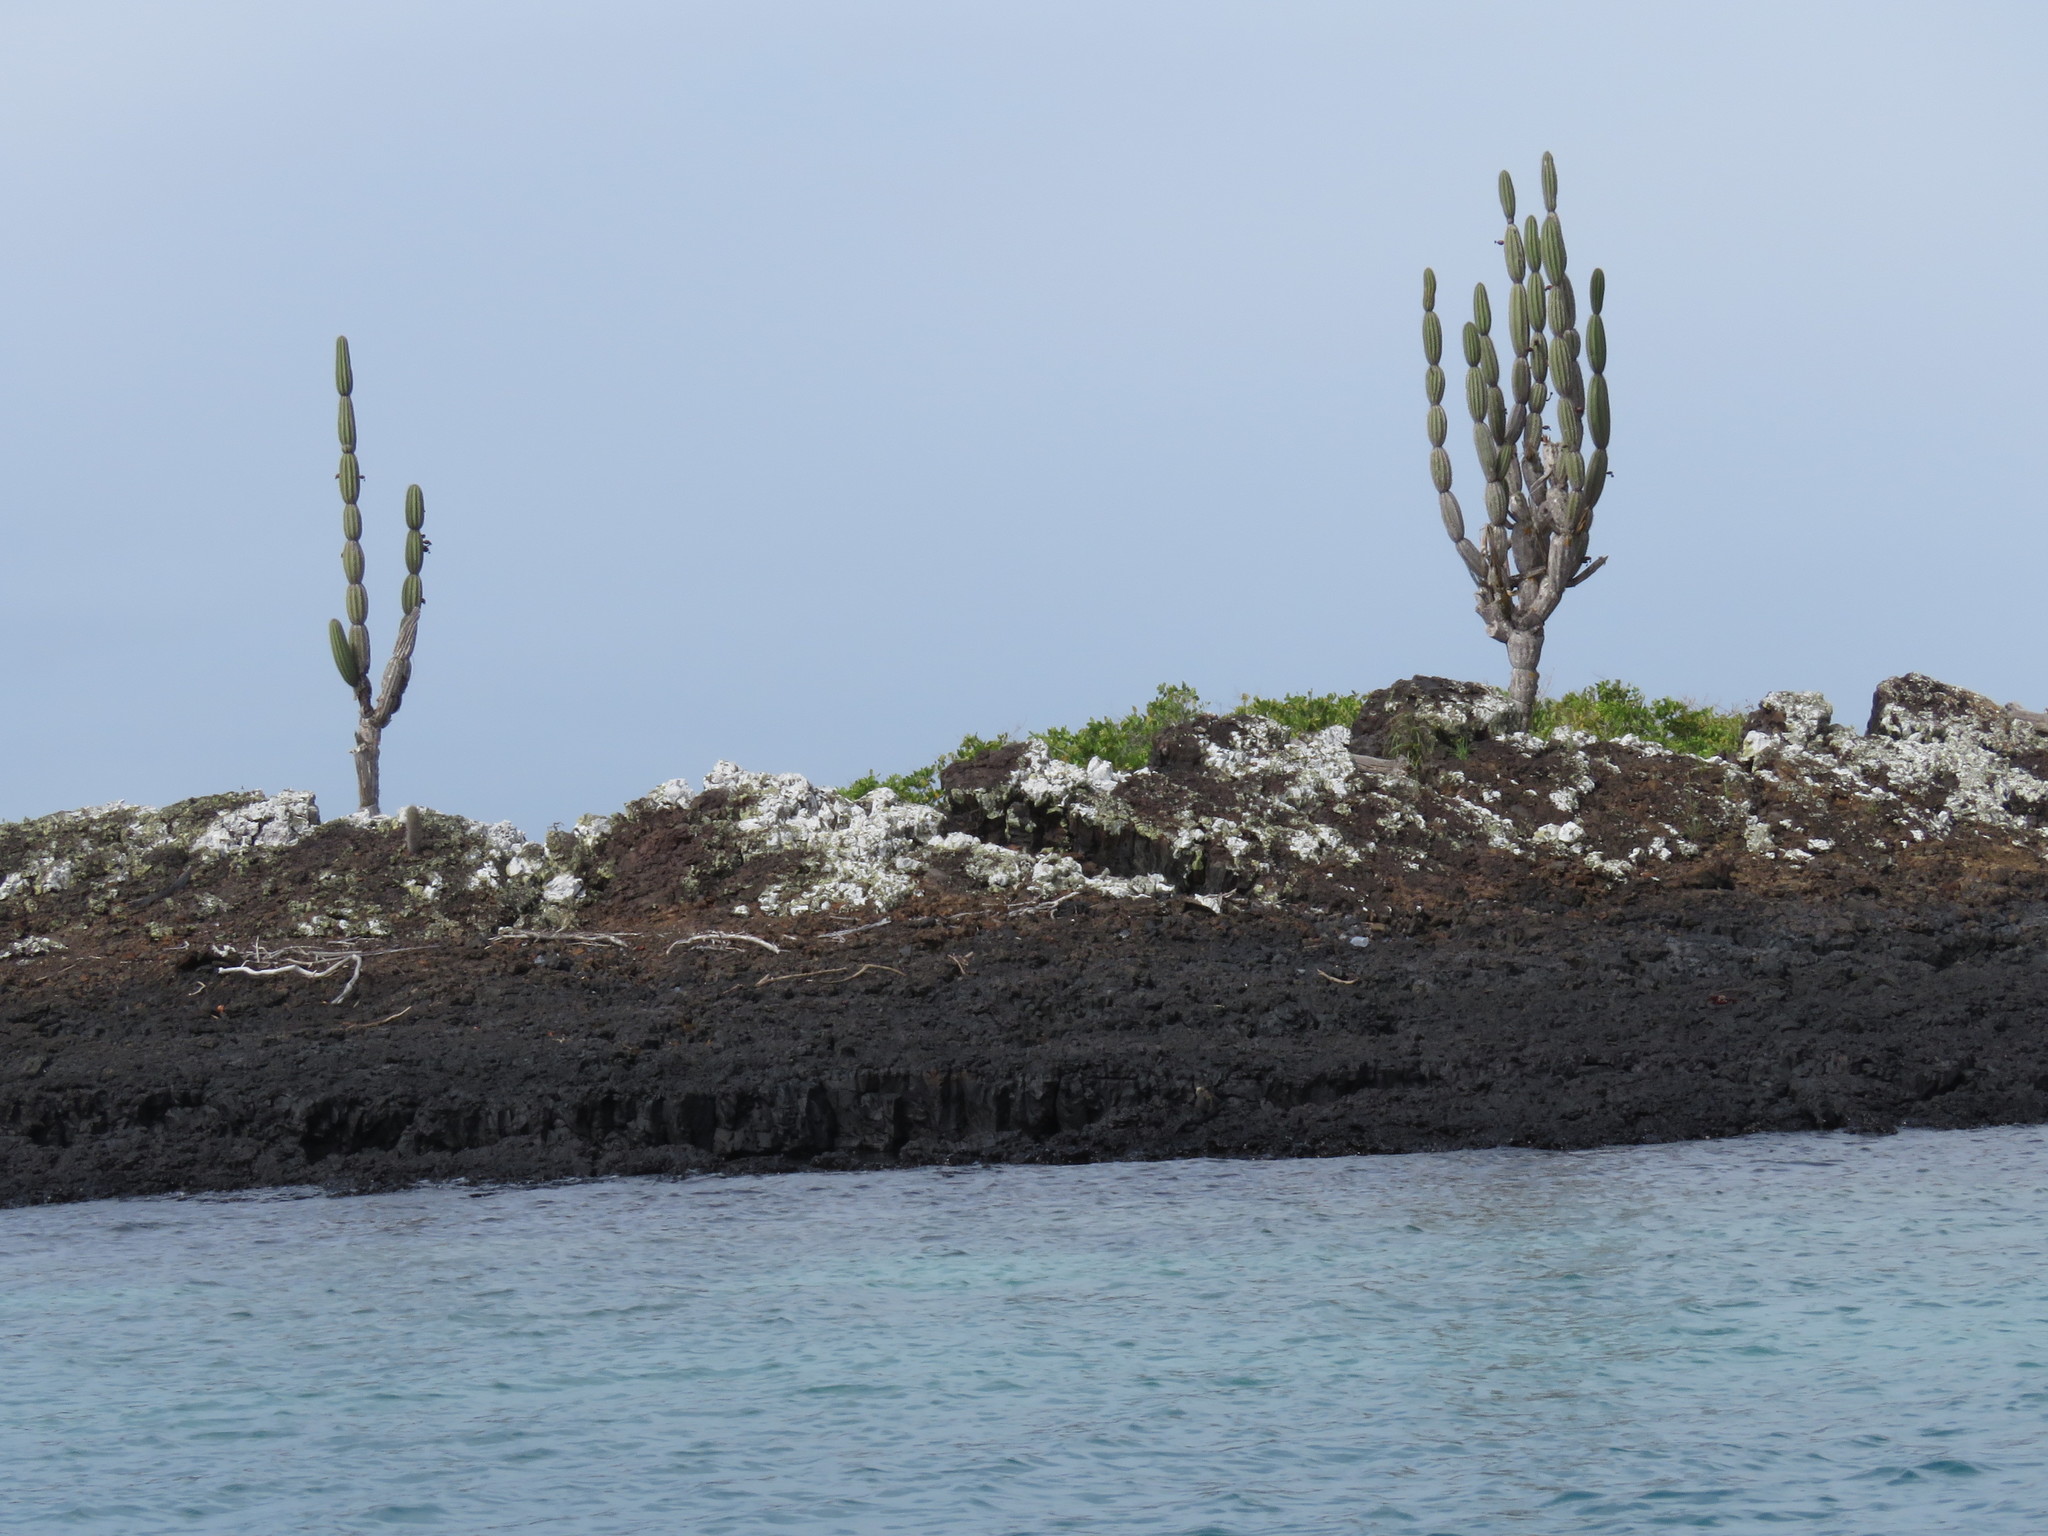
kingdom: Plantae
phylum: Tracheophyta
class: Magnoliopsida
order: Caryophyllales
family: Cactaceae
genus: Jasminocereus
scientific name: Jasminocereus thouarsii
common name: Candelabra cactus
